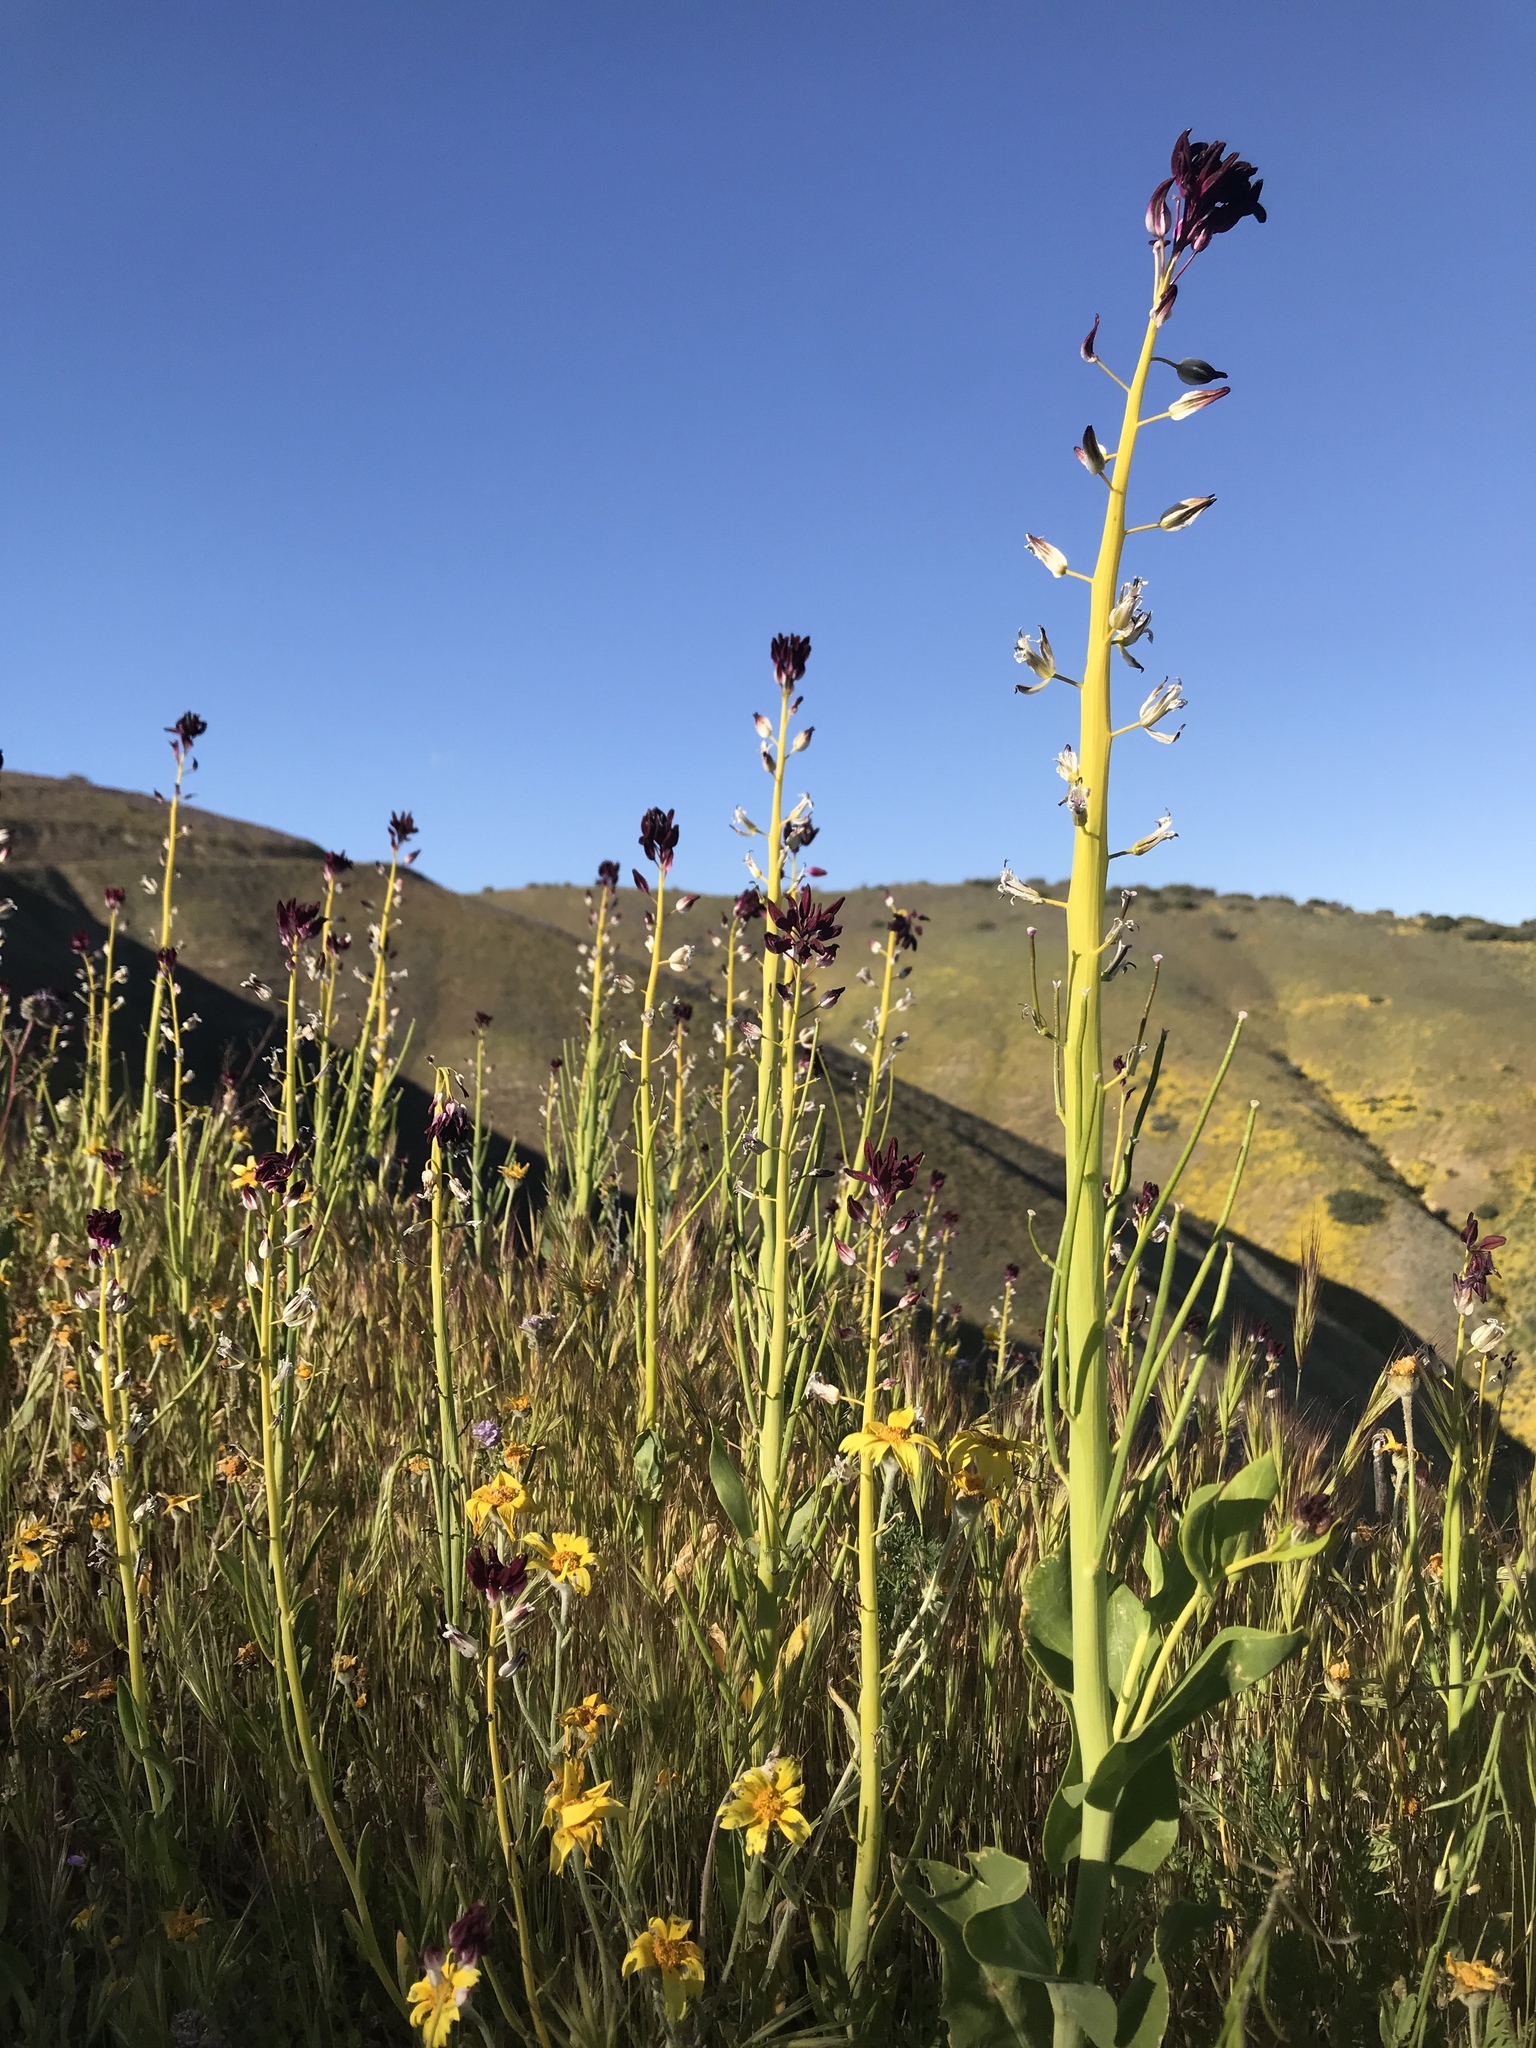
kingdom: Plantae
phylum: Tracheophyta
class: Magnoliopsida
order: Brassicales
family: Brassicaceae
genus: Streptanthus
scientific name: Streptanthus inflatus
